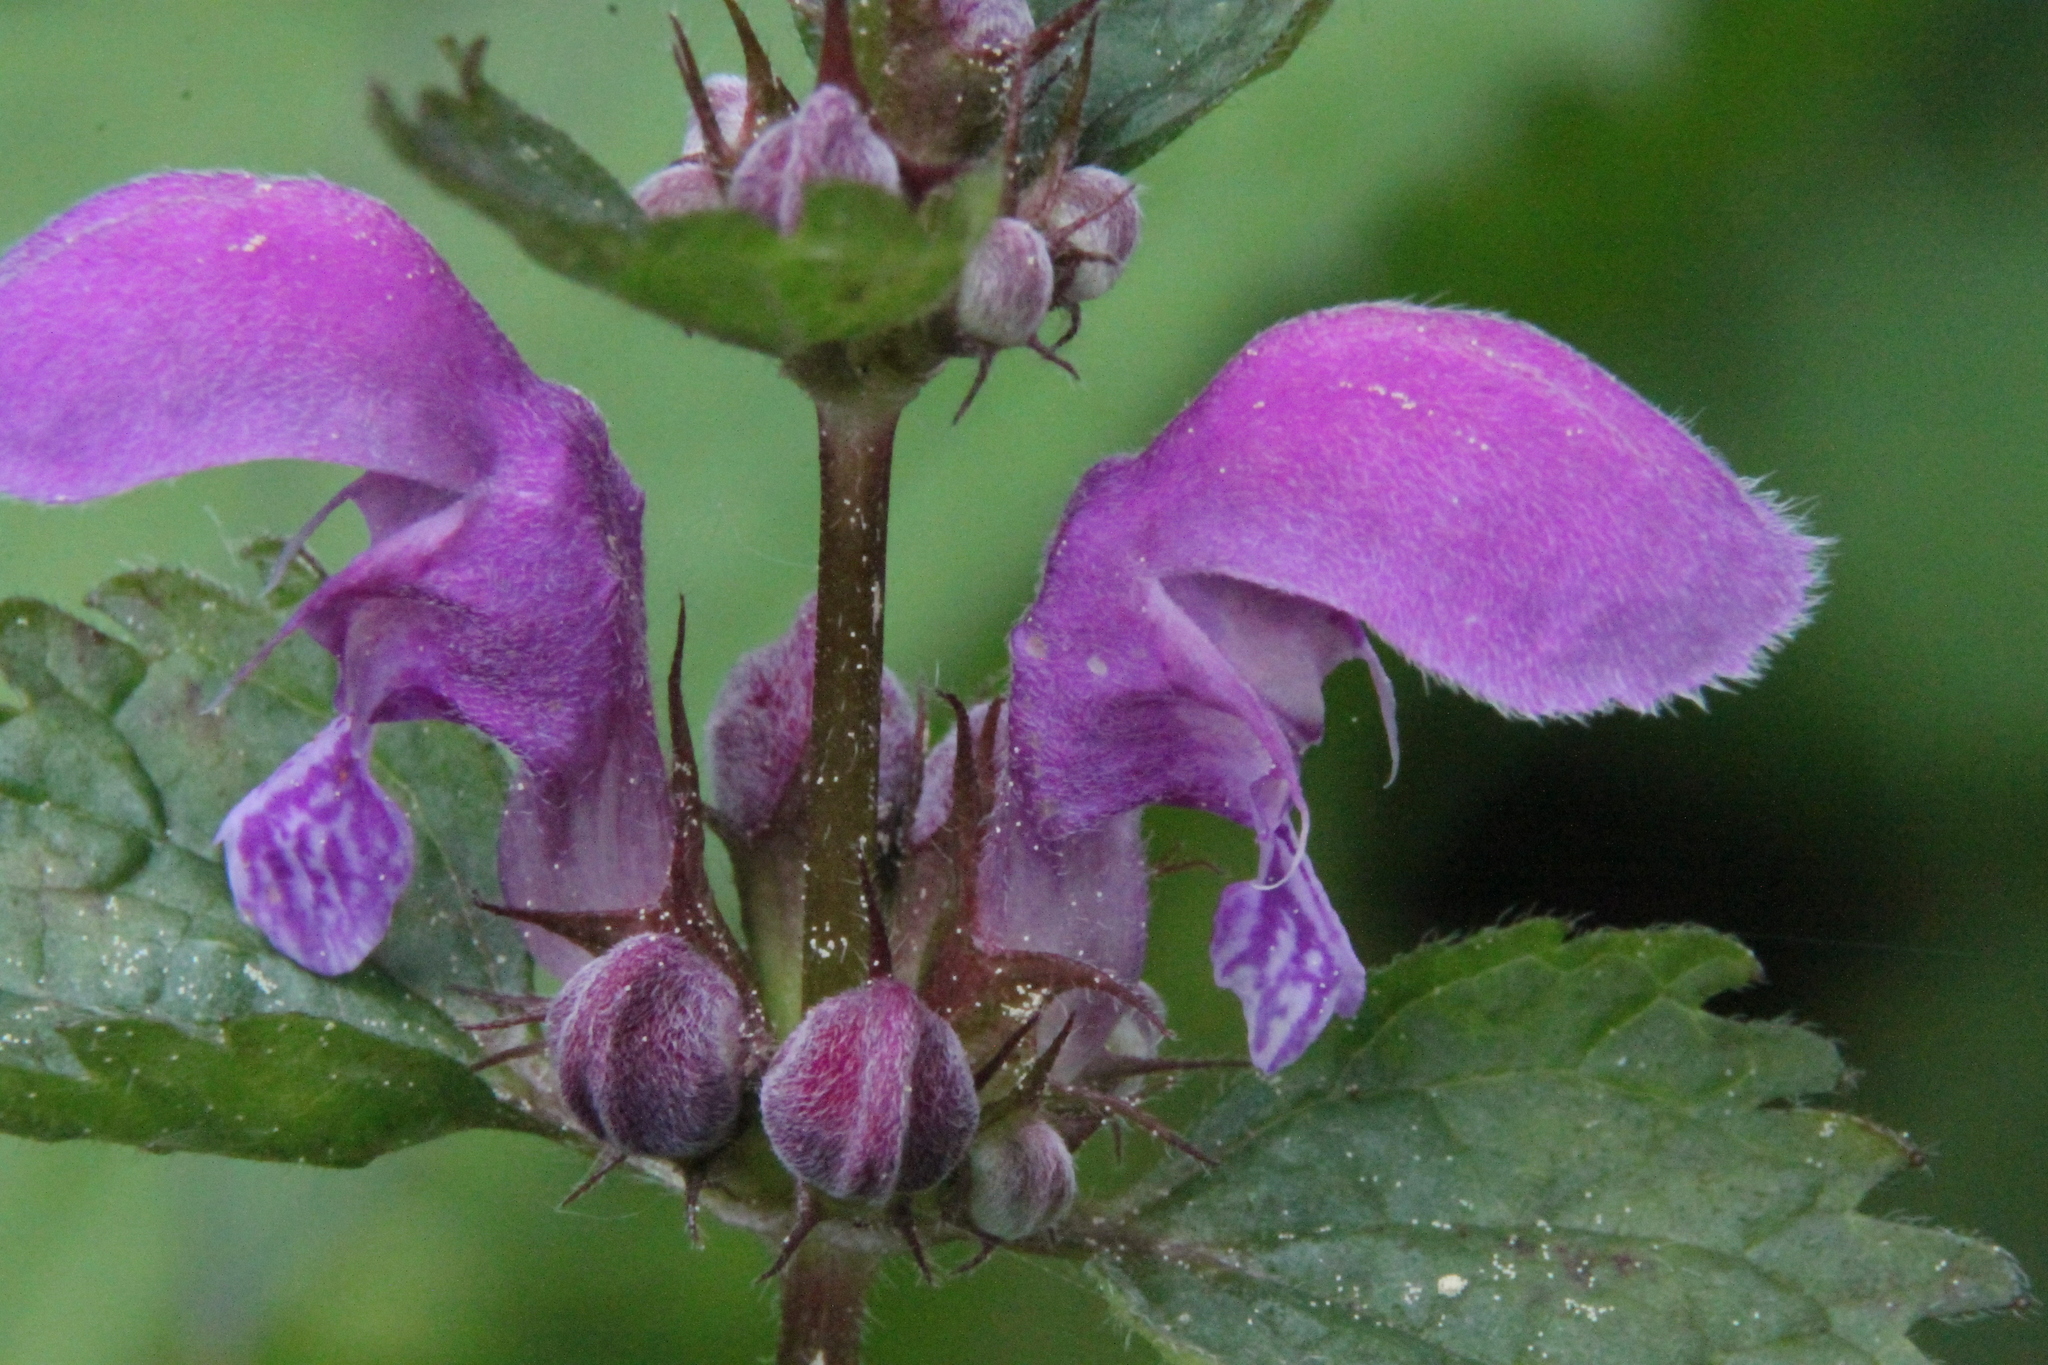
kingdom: Plantae
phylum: Tracheophyta
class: Magnoliopsida
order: Lamiales
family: Lamiaceae
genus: Lamium
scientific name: Lamium maculatum
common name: Spotted dead-nettle
